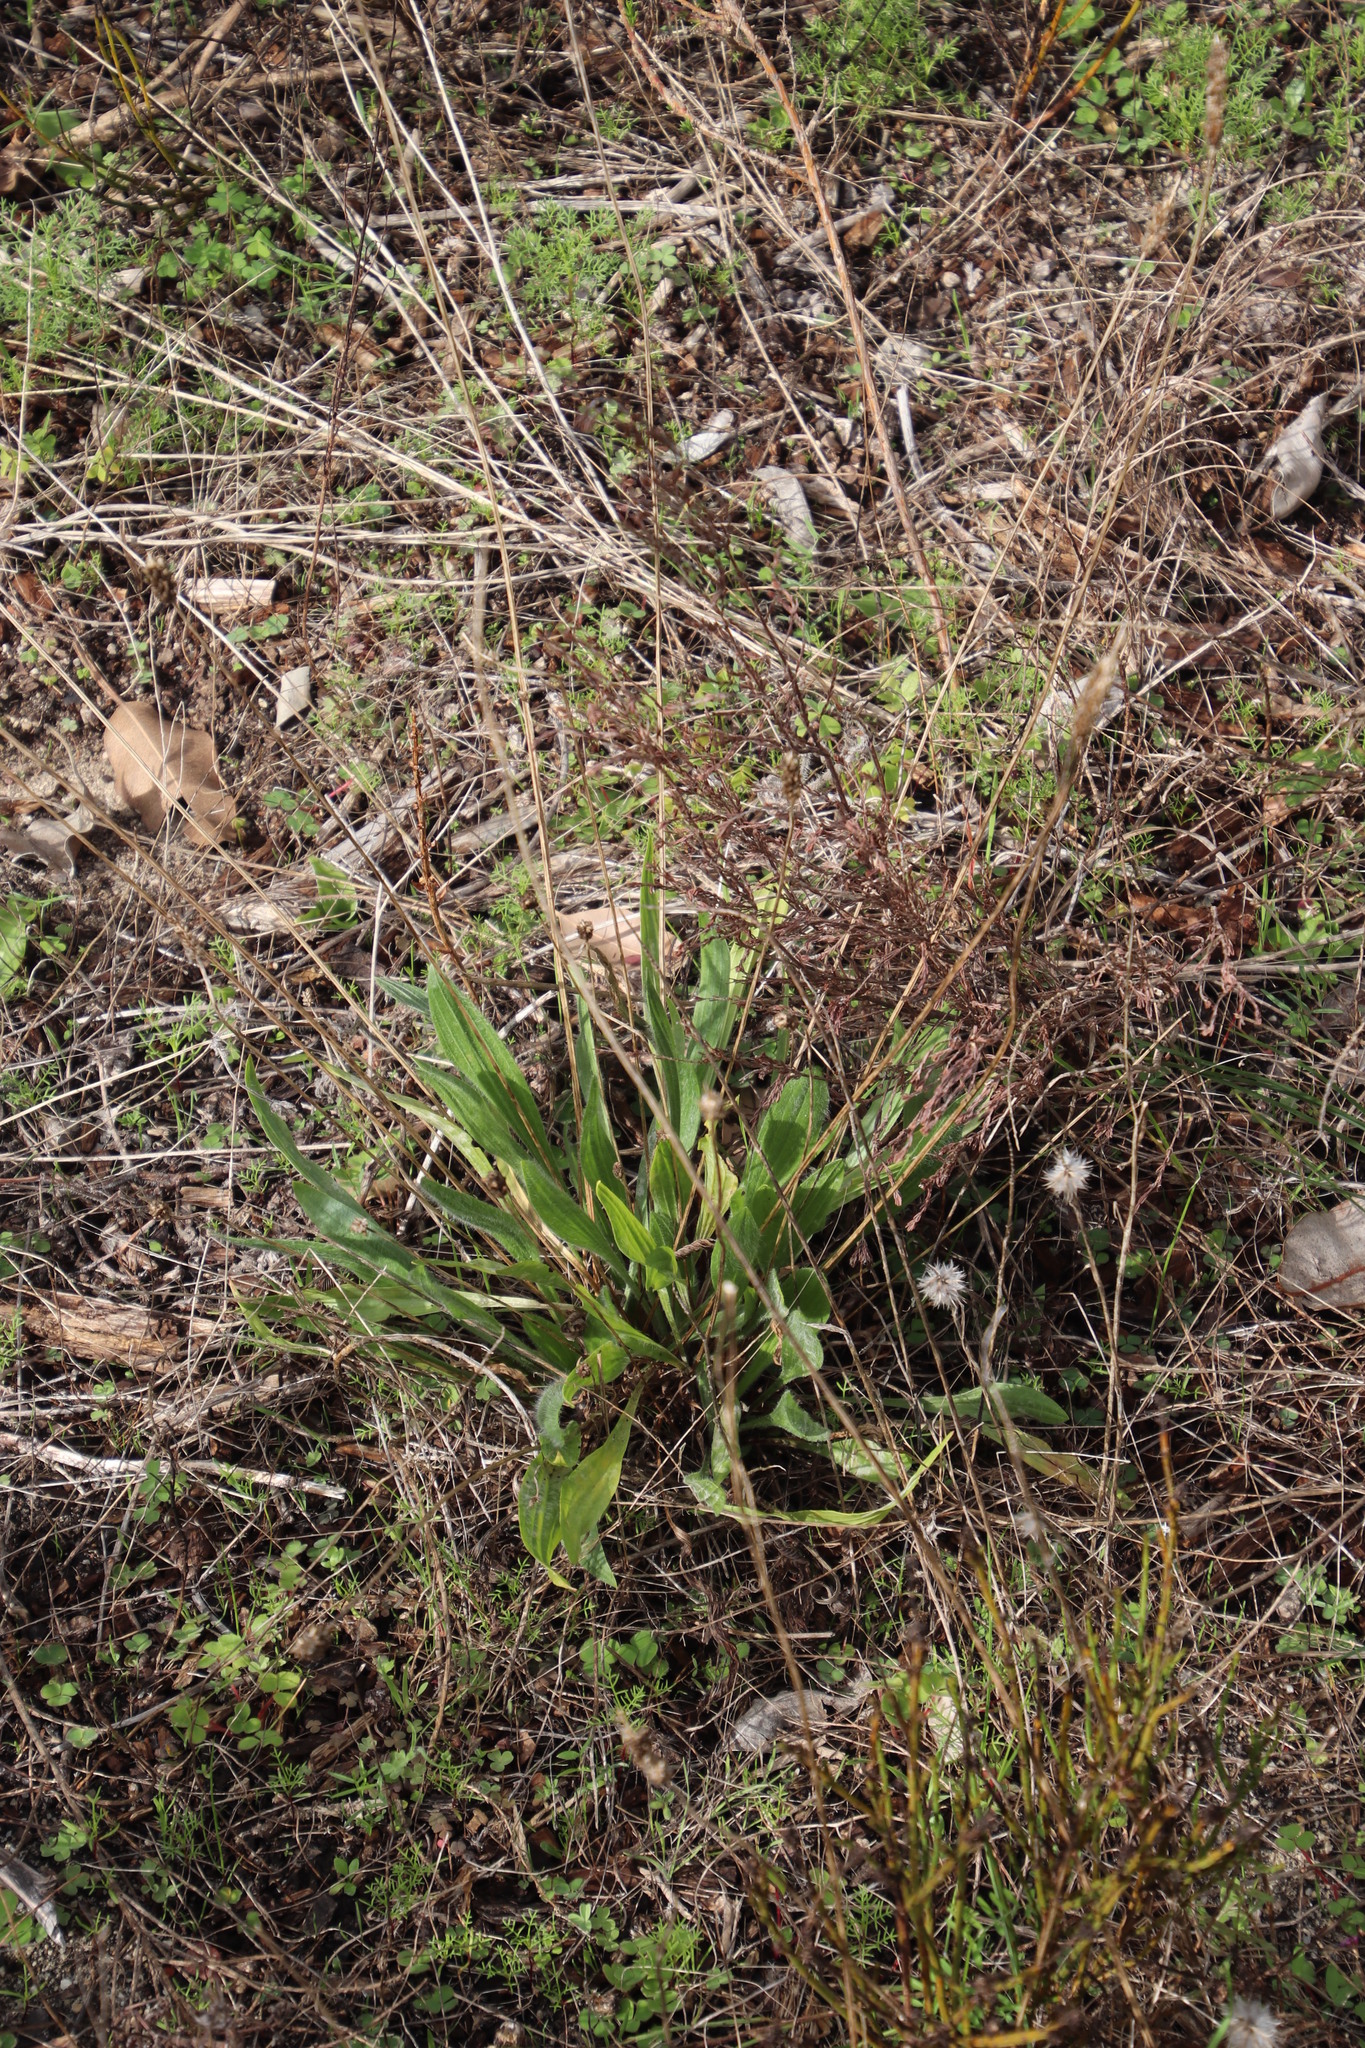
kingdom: Plantae
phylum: Tracheophyta
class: Magnoliopsida
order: Lamiales
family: Plantaginaceae
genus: Plantago
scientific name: Plantago lanceolata
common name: Ribwort plantain
